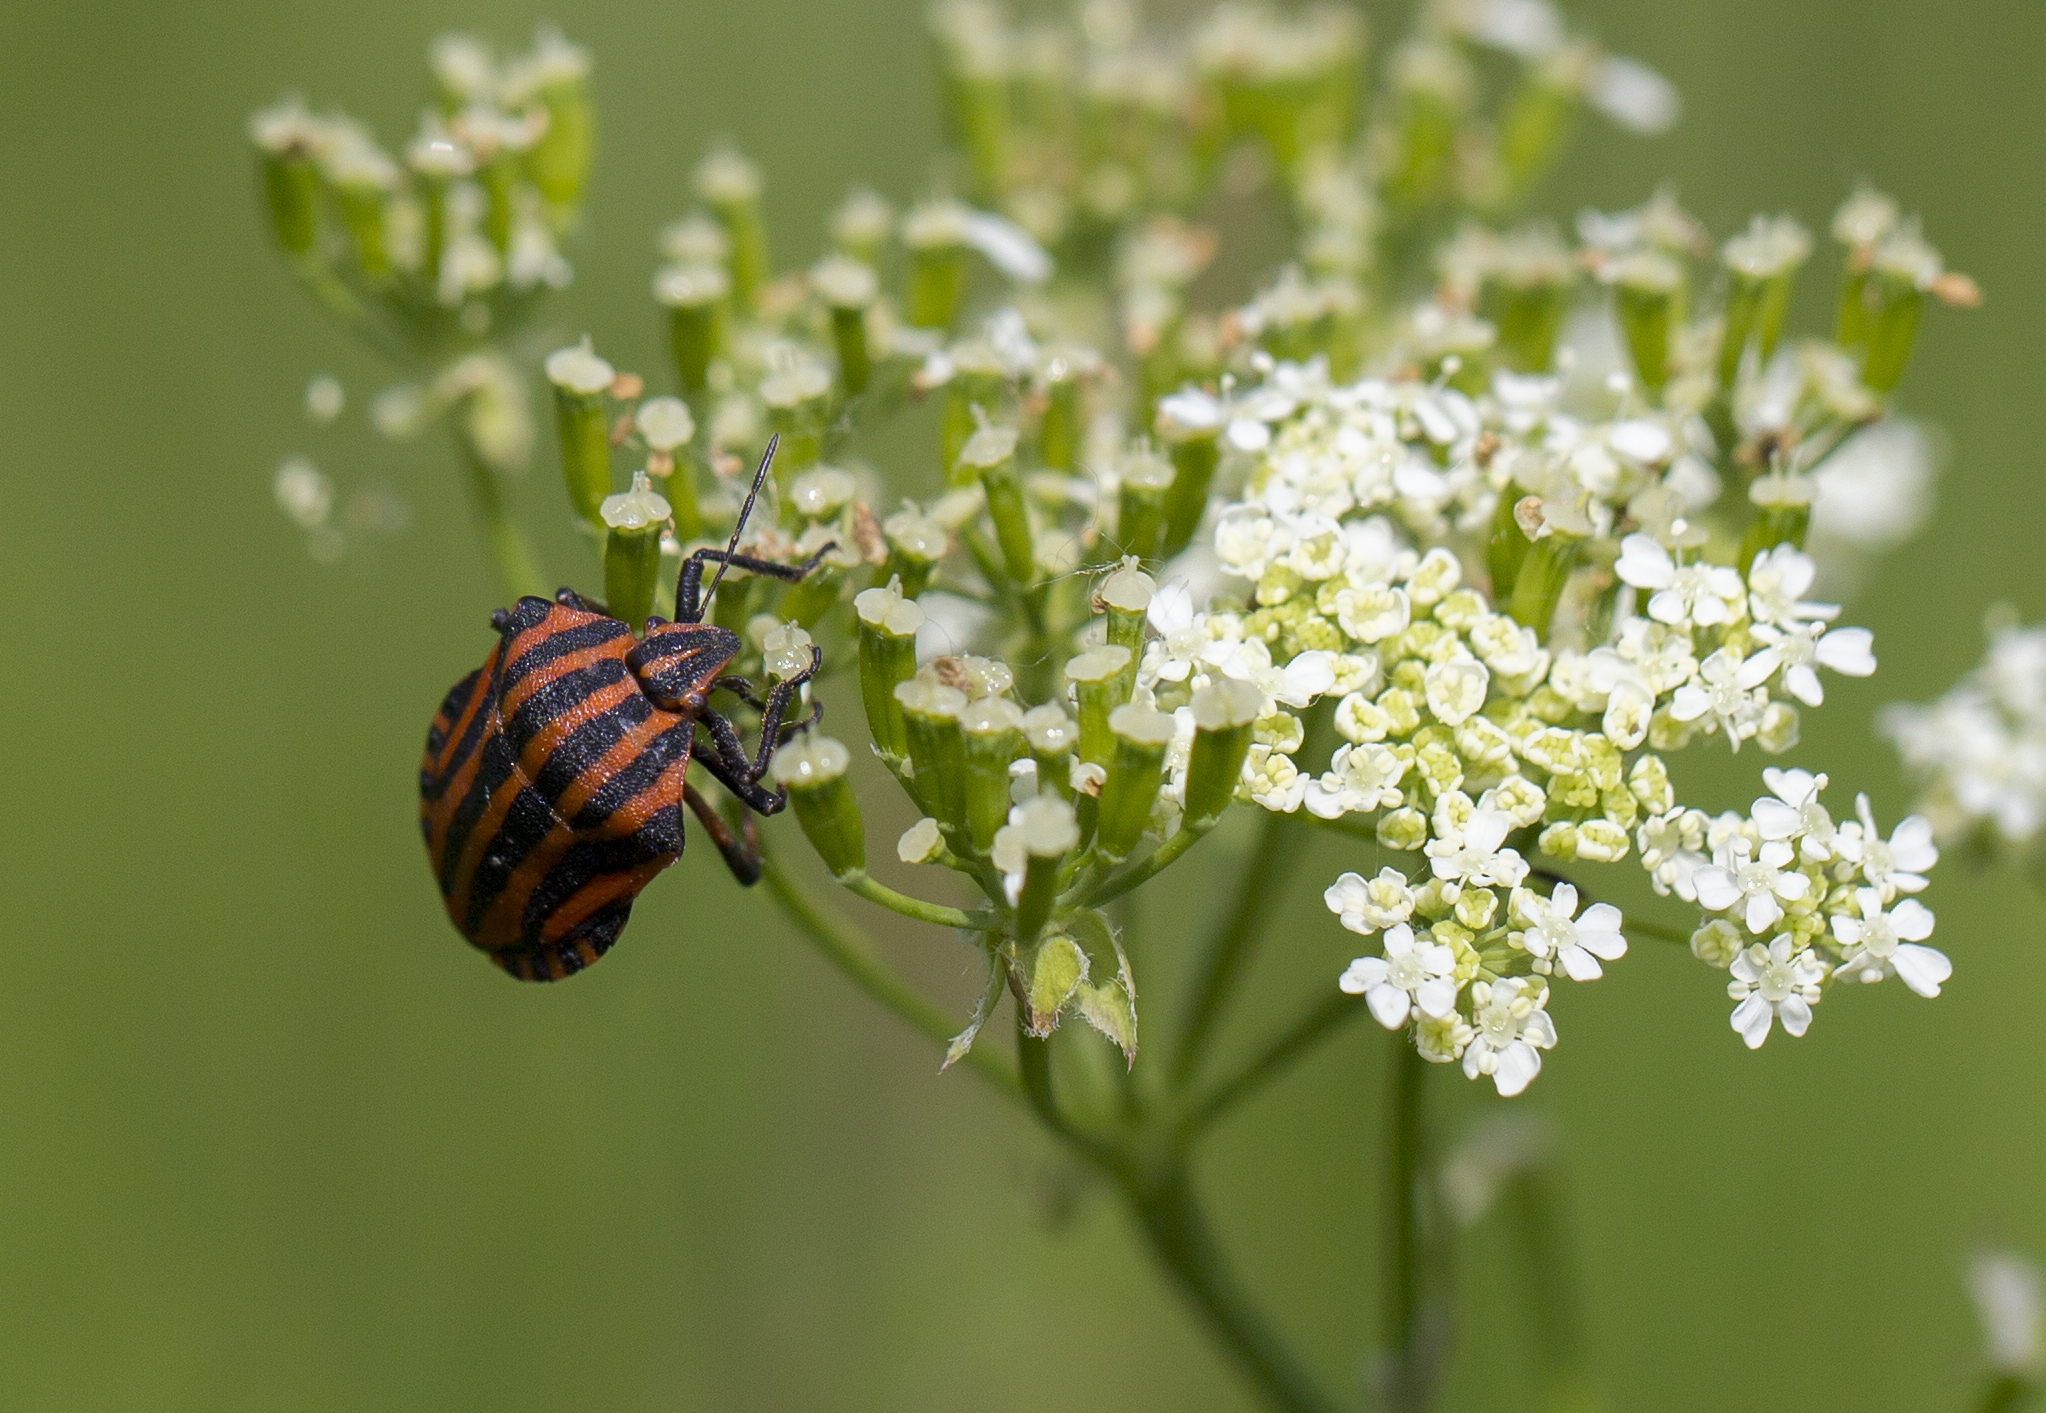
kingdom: Animalia
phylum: Arthropoda
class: Insecta
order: Hemiptera
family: Pentatomidae
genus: Graphosoma
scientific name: Graphosoma italicum
